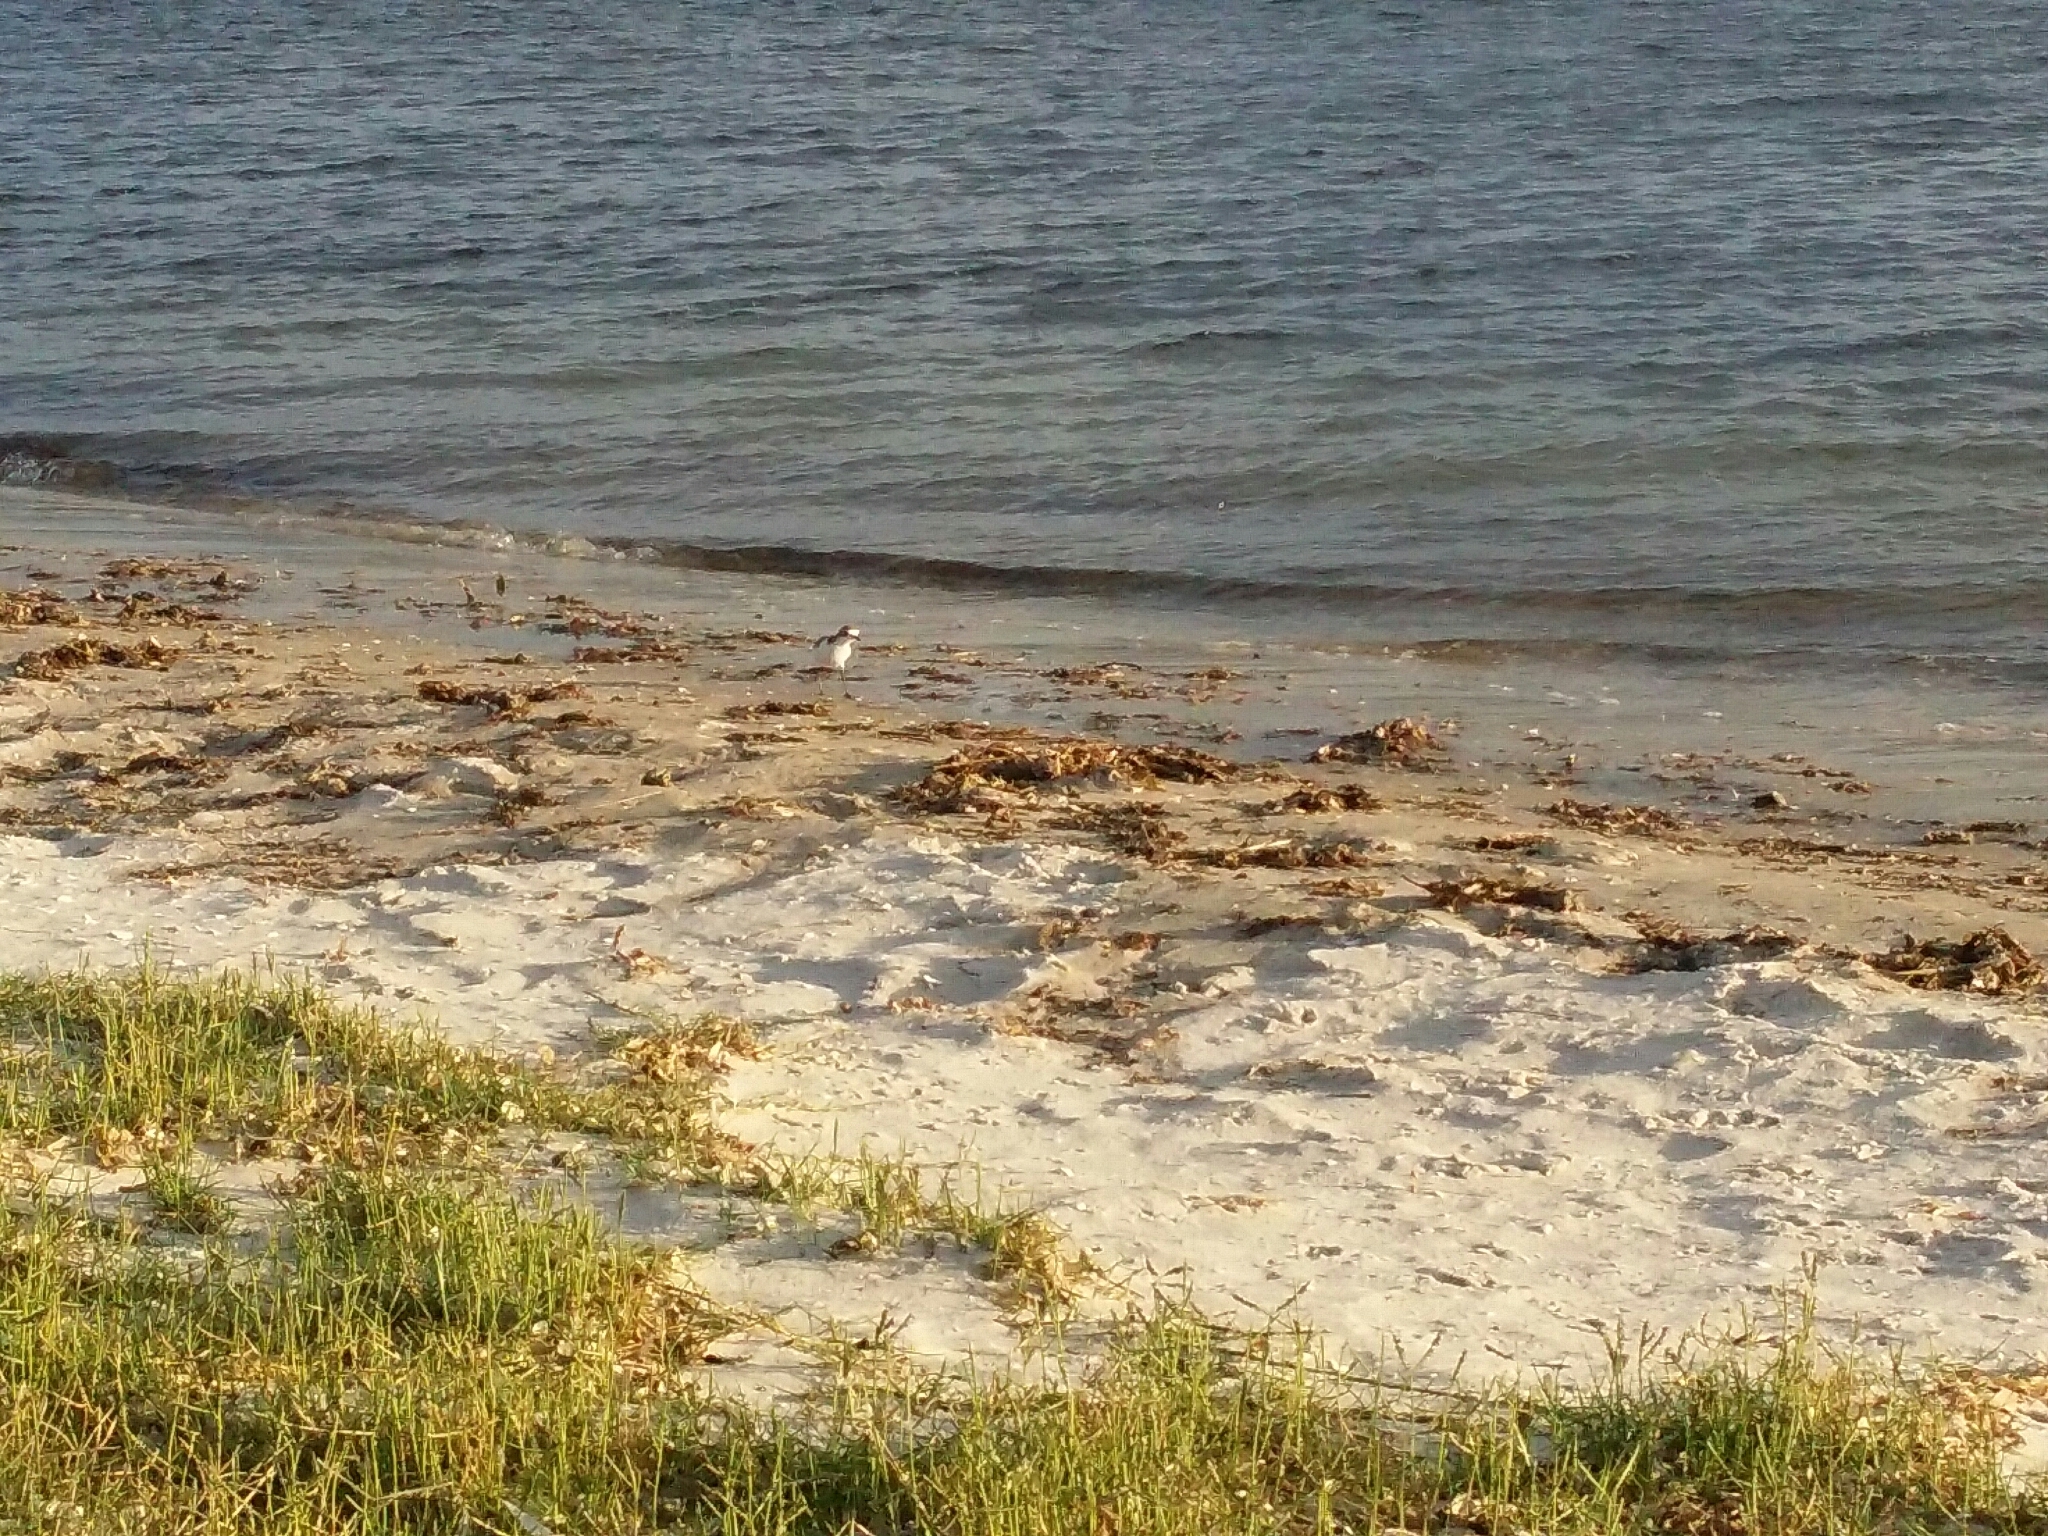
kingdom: Animalia
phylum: Chordata
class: Aves
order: Charadriiformes
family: Charadriidae
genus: Anarhynchus
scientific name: Anarhynchus
